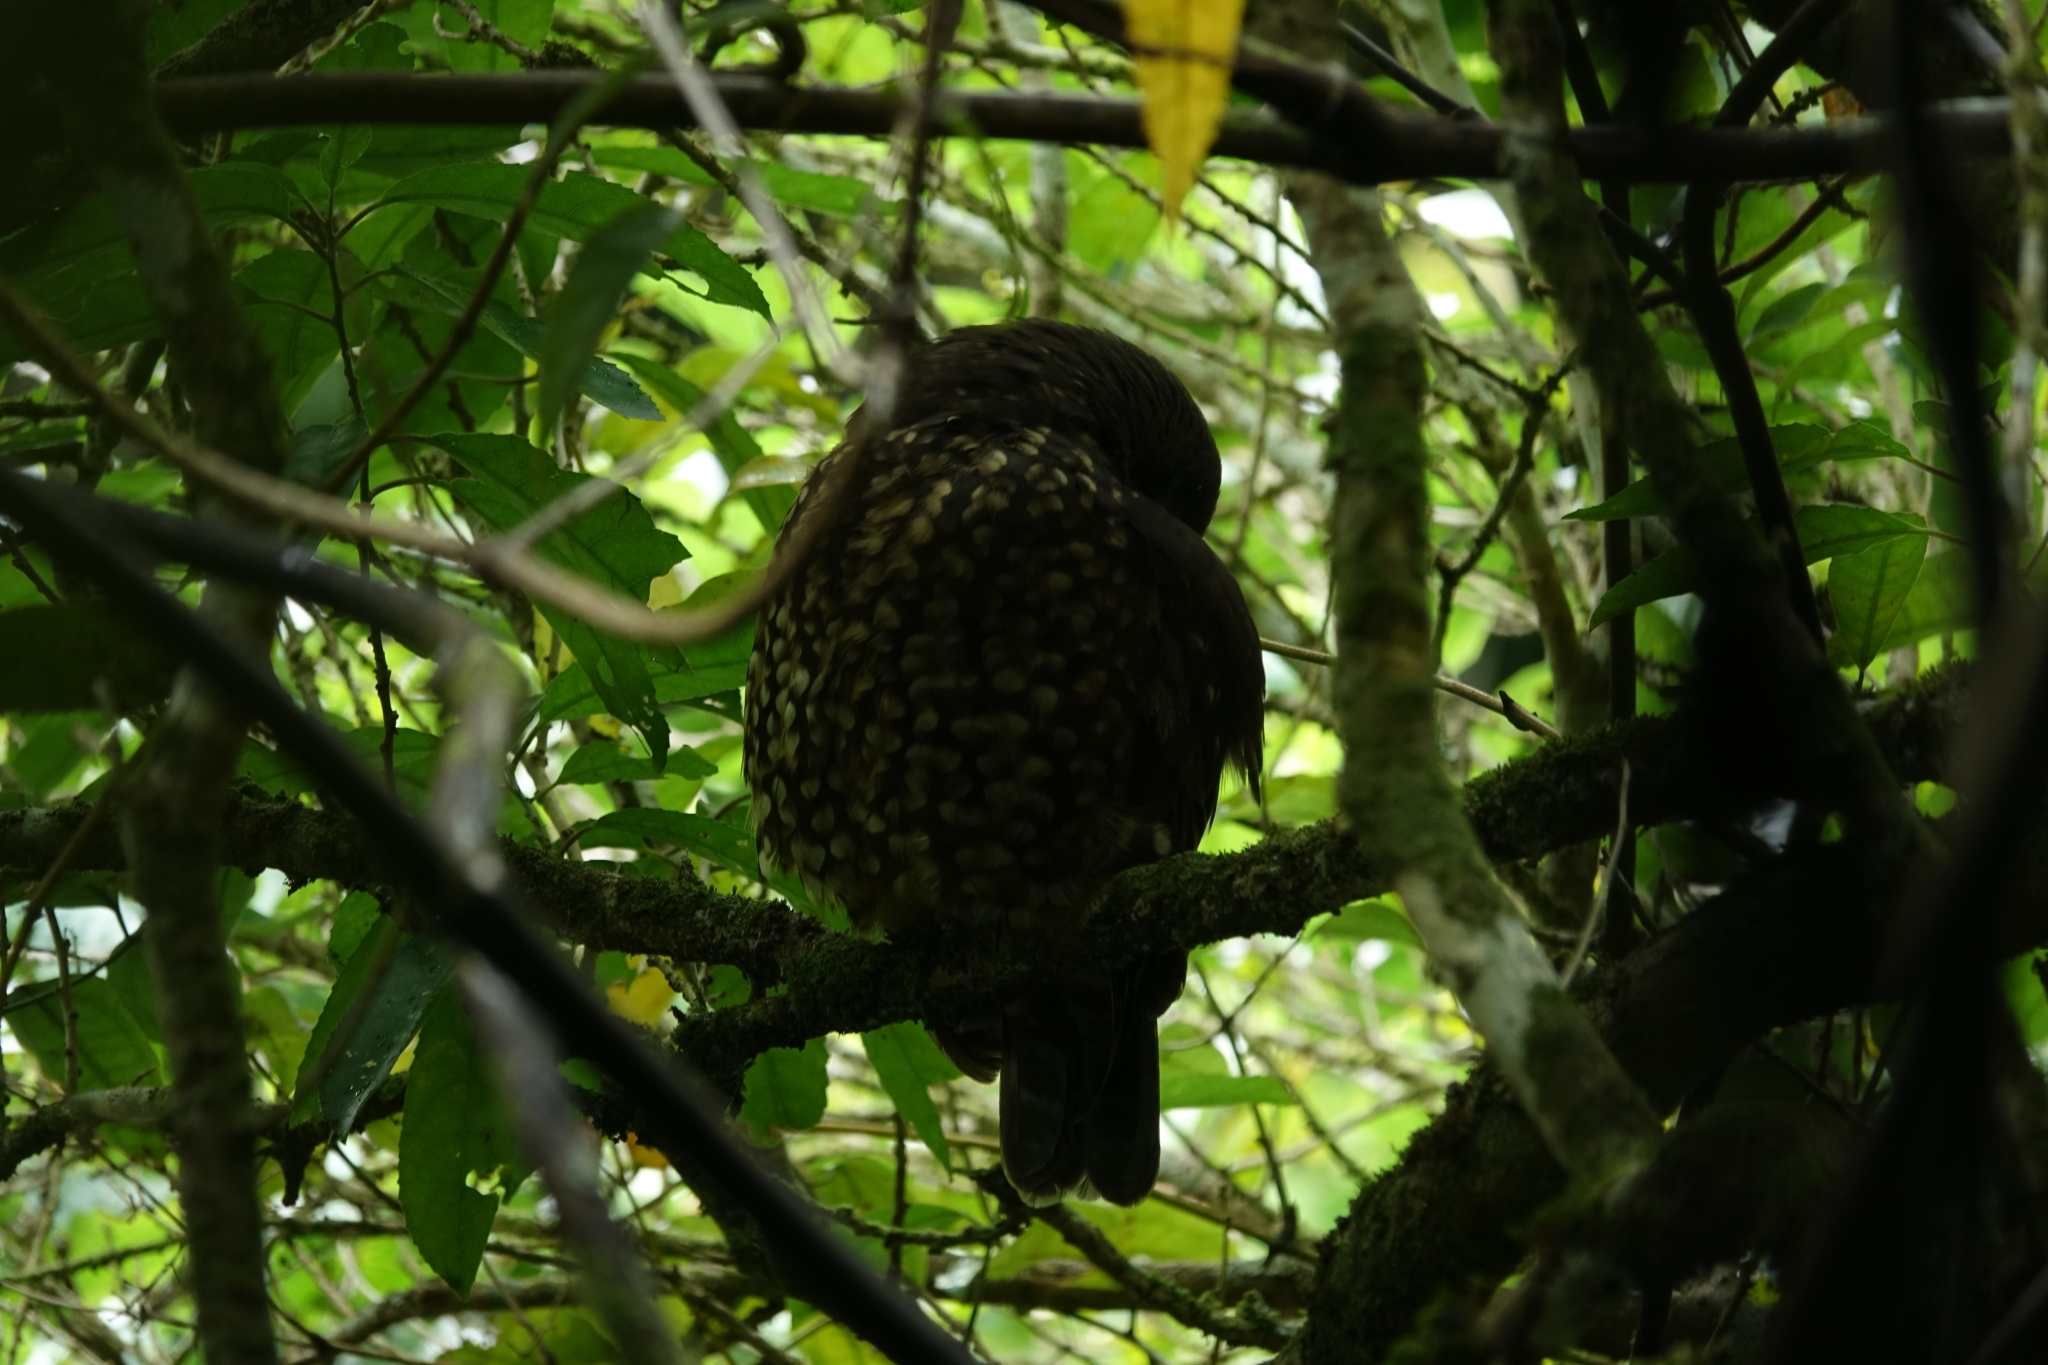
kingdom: Animalia
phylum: Chordata
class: Aves
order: Strigiformes
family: Strigidae
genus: Ninox
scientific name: Ninox novaeseelandiae
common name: Morepork
